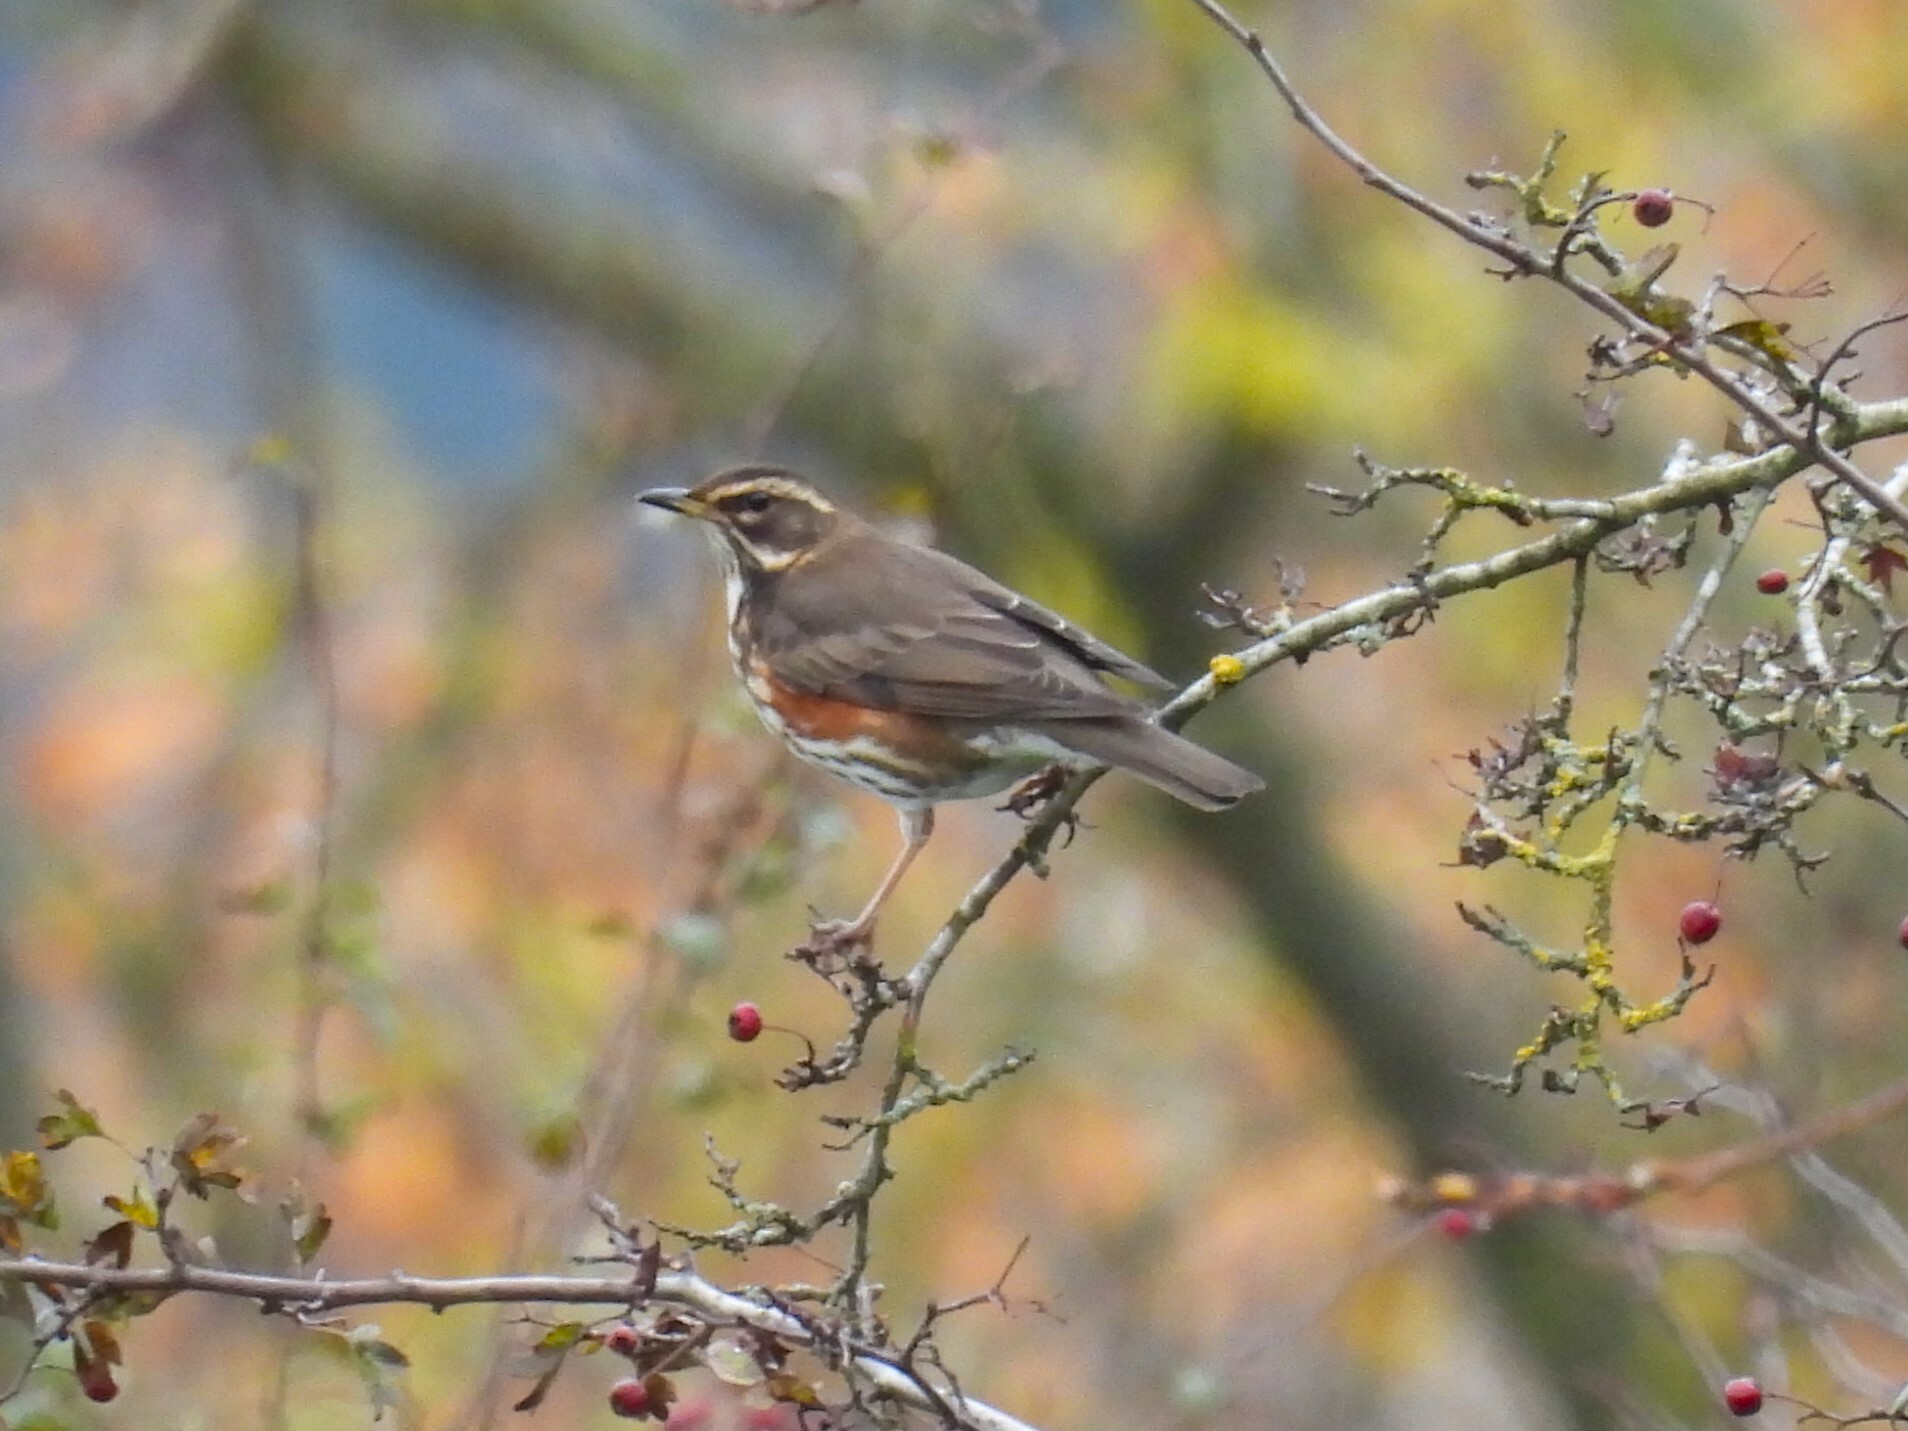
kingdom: Animalia
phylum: Chordata
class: Aves
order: Passeriformes
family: Turdidae
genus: Turdus
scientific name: Turdus iliacus
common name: Redwing
